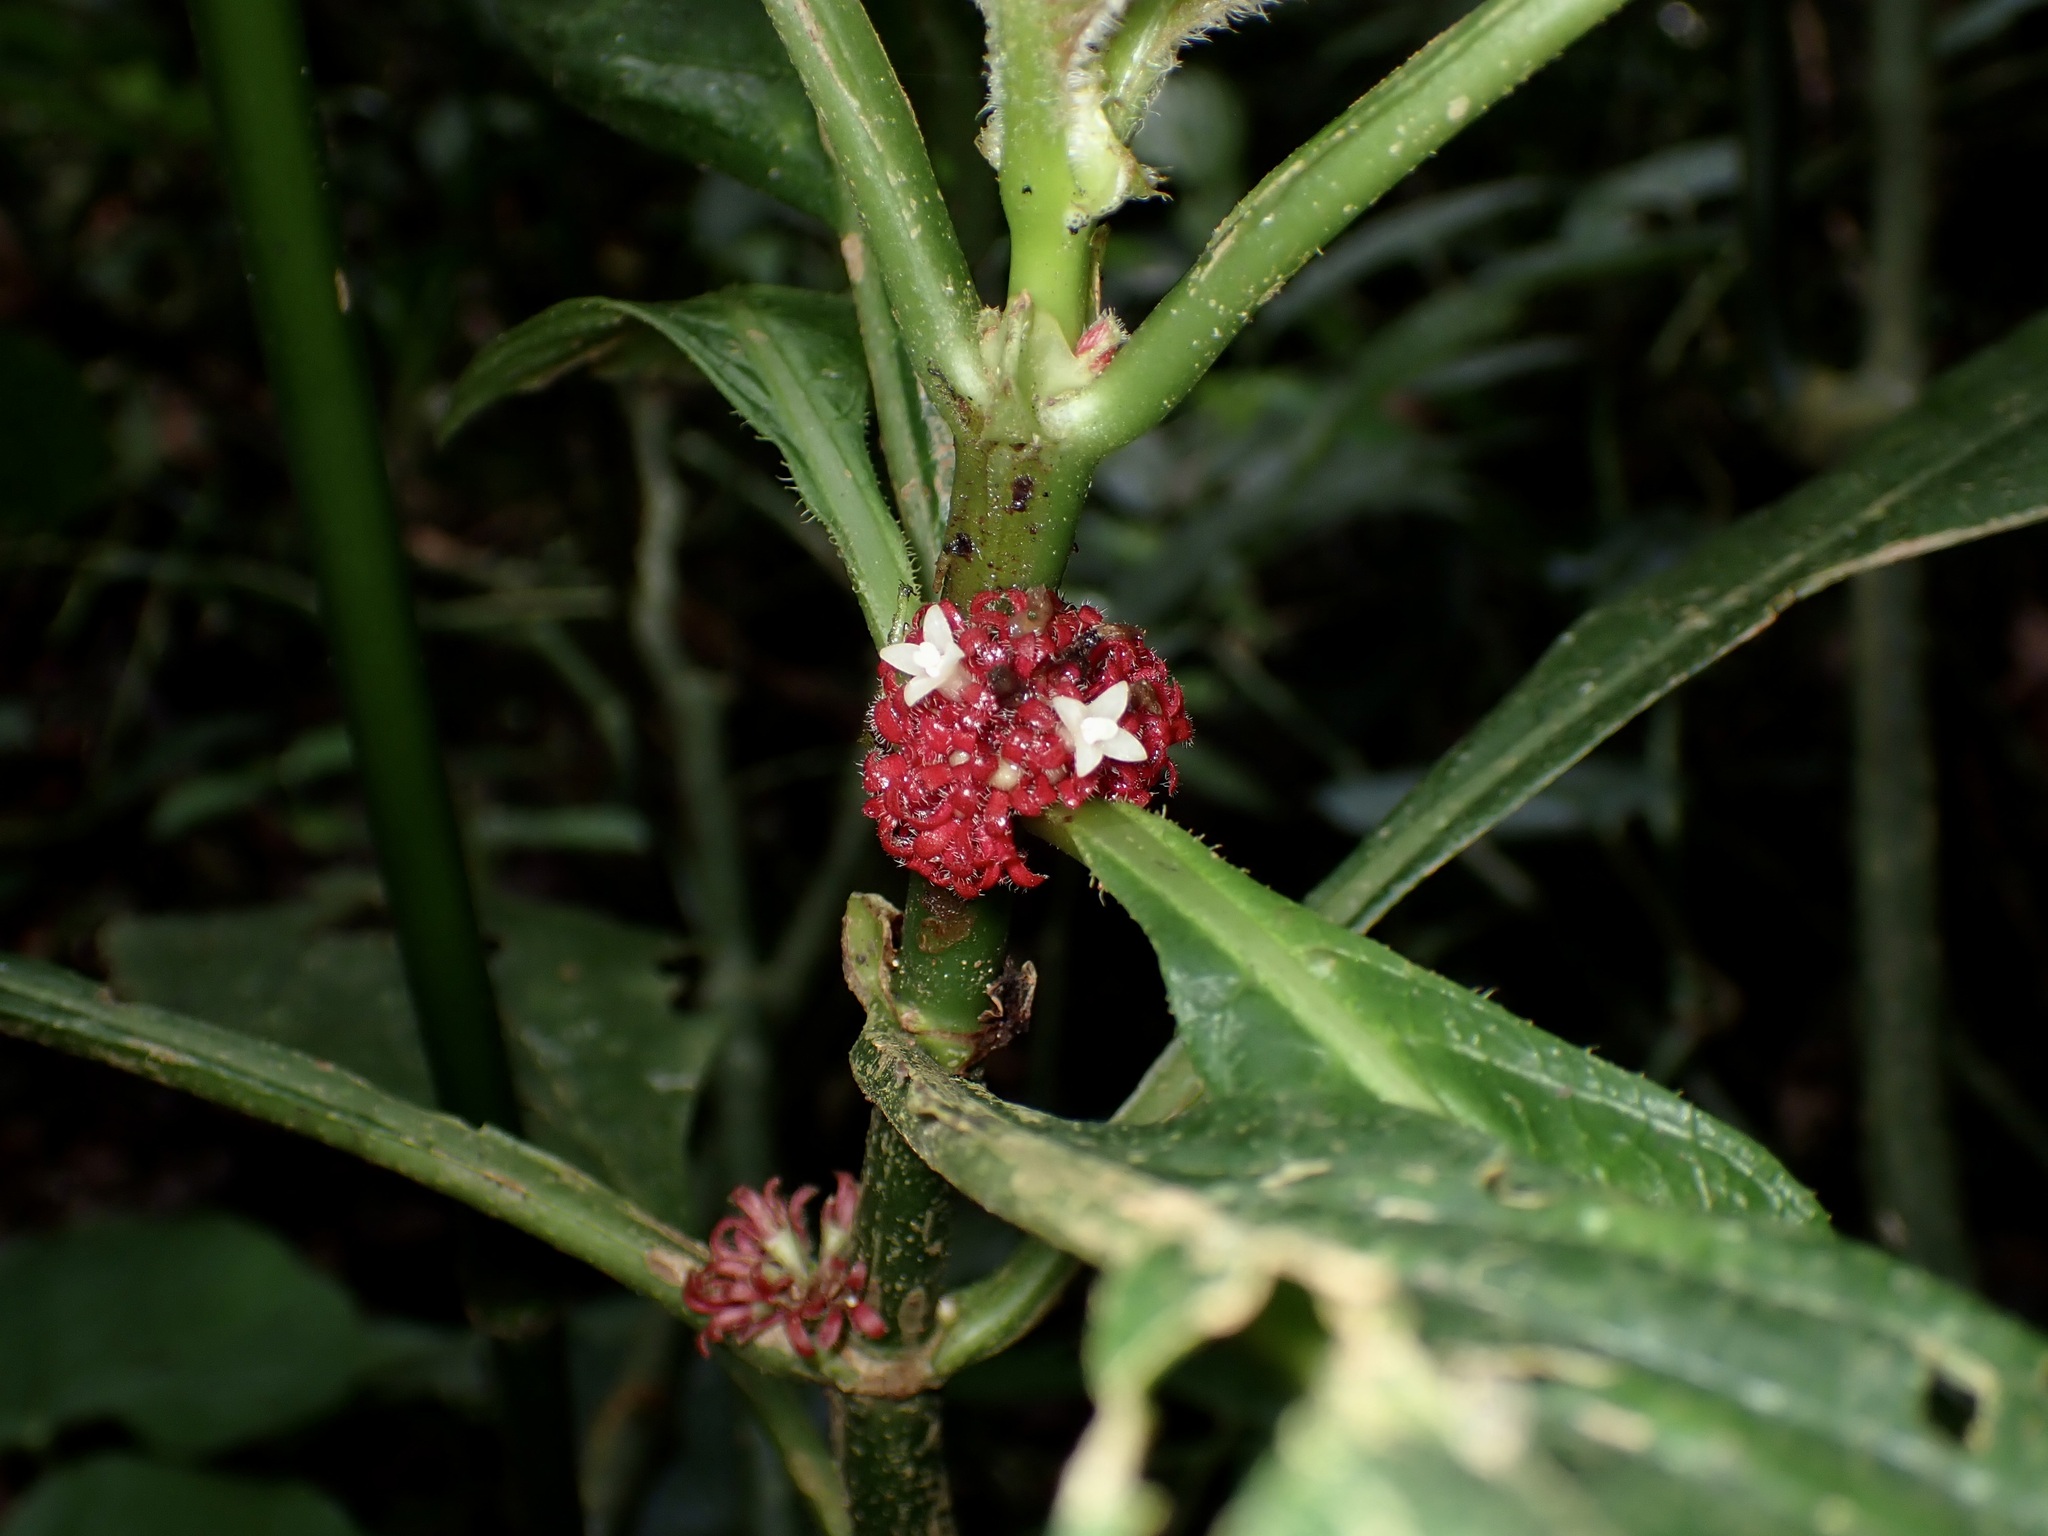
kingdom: Plantae
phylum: Tracheophyta
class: Magnoliopsida
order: Gentianales
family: Rubiaceae
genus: Hoffmannia
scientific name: Hoffmannia congesta
